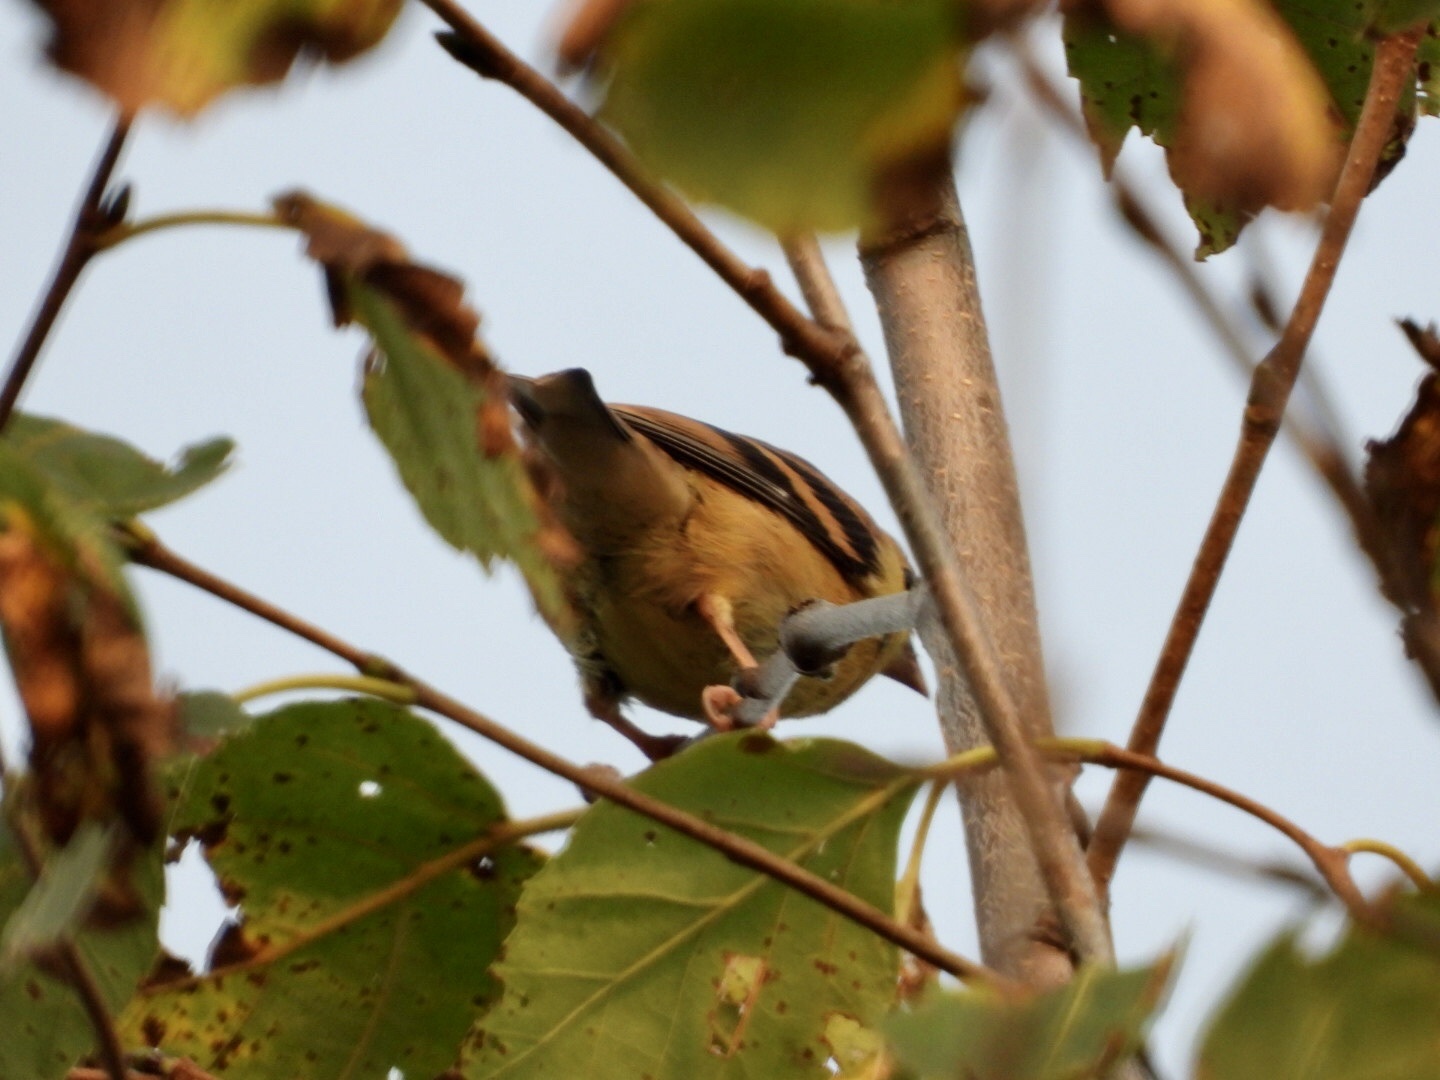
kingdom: Animalia
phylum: Chordata
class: Aves
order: Passeriformes
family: Fringillidae
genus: Spinus
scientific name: Spinus tristis
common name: American goldfinch
